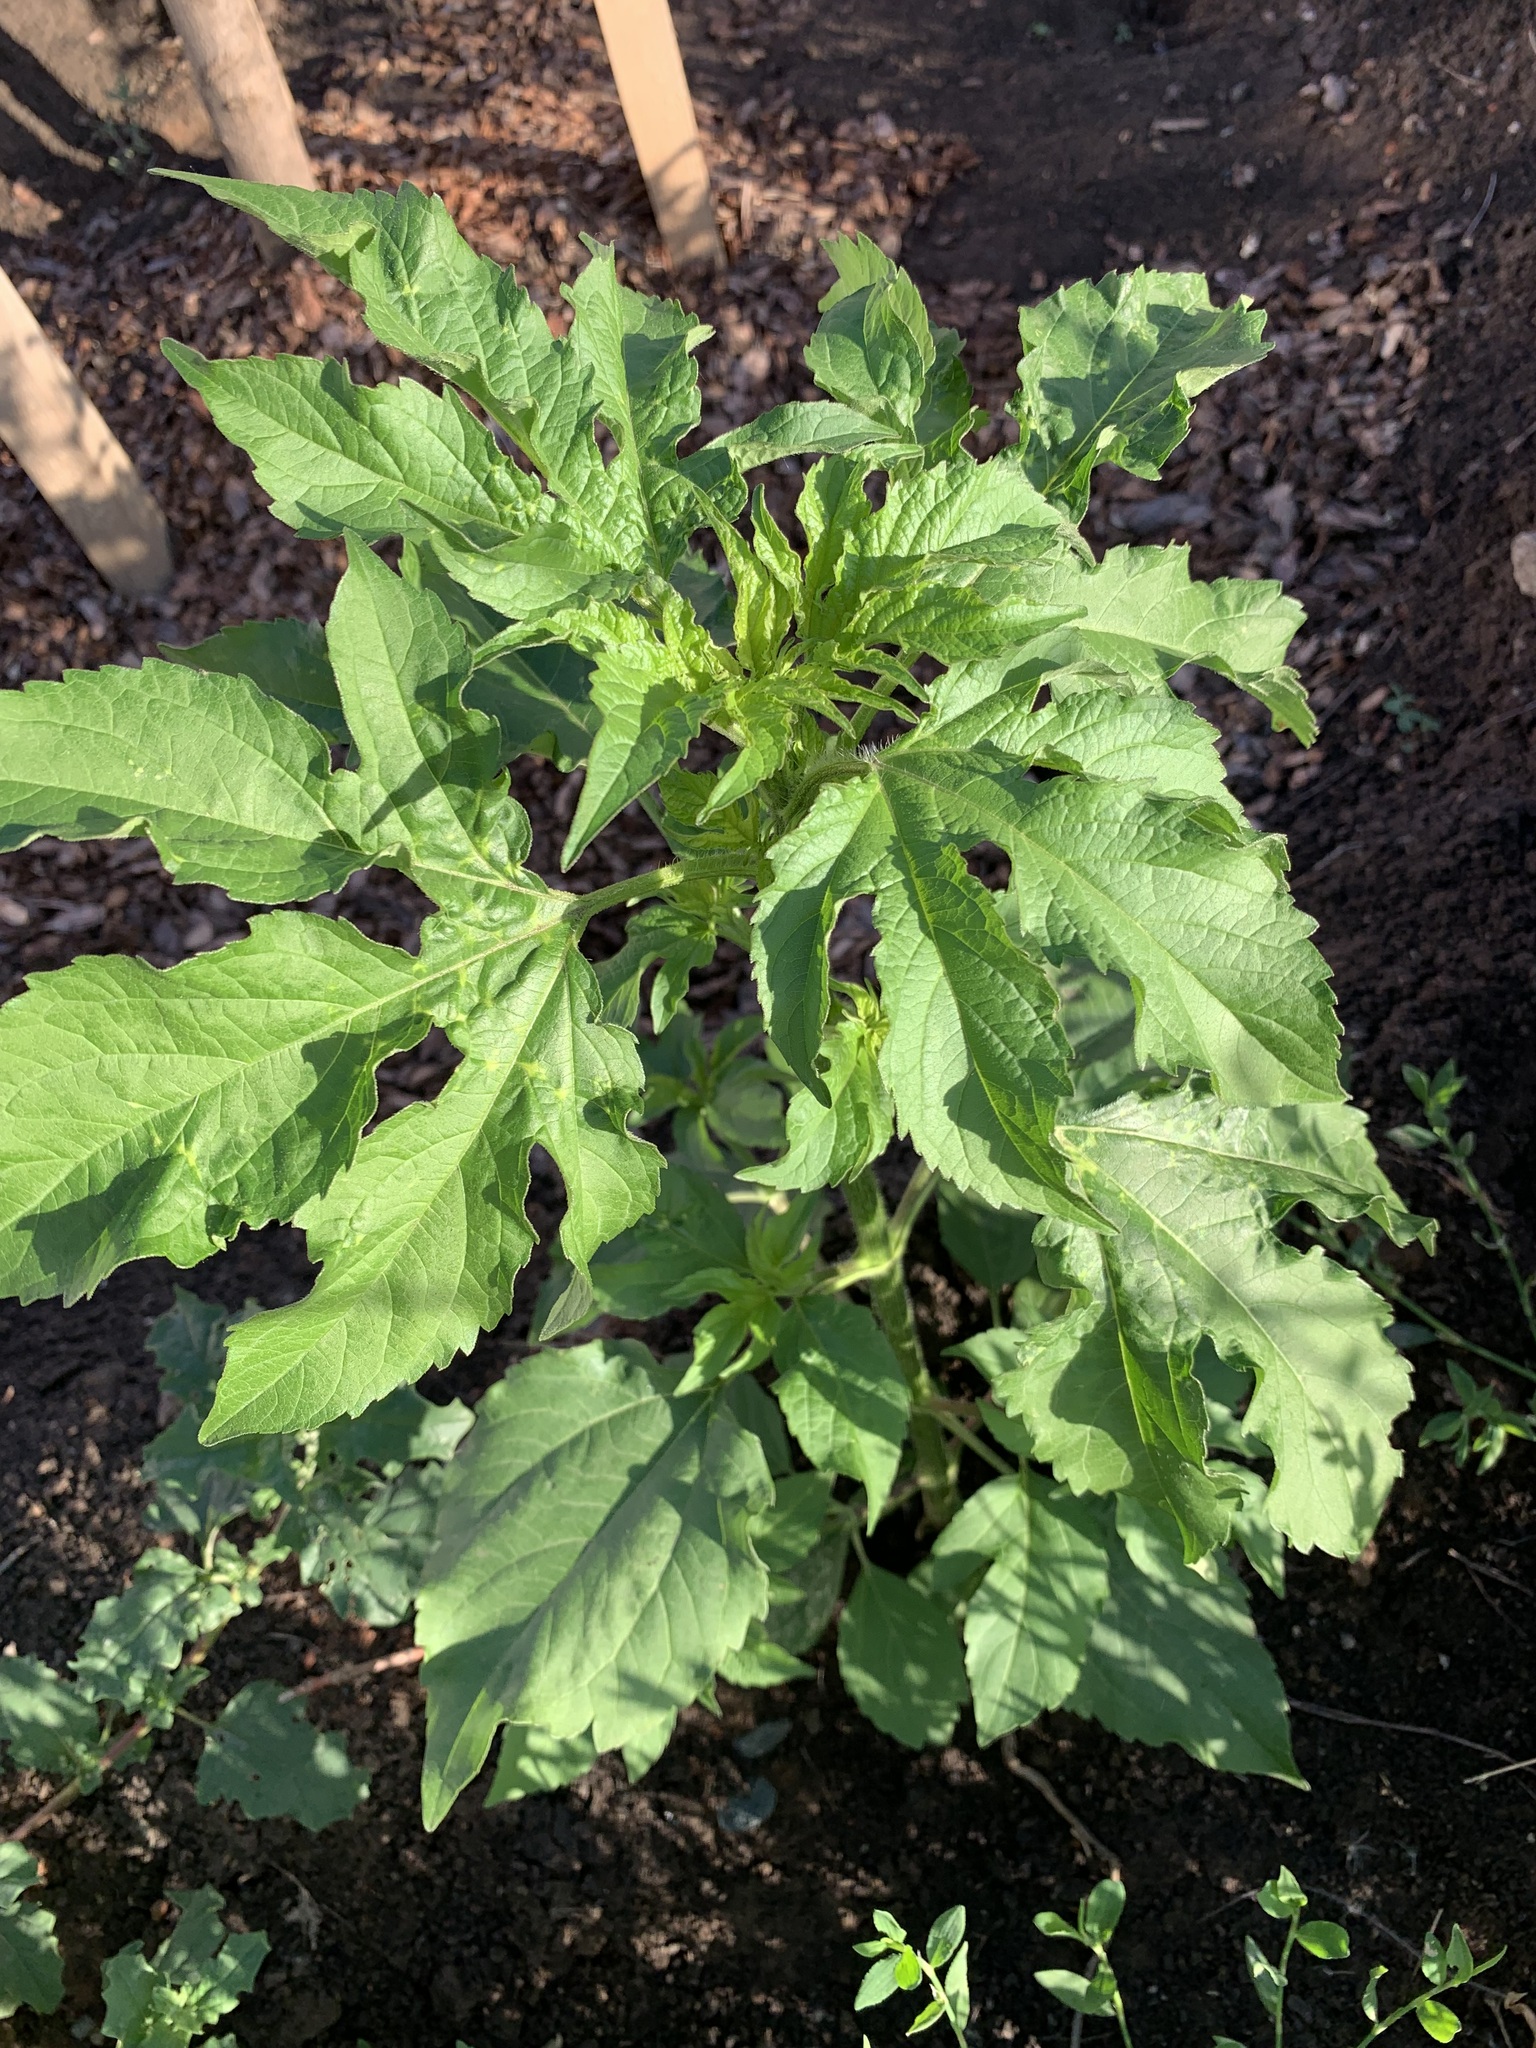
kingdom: Plantae
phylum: Tracheophyta
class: Magnoliopsida
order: Asterales
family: Asteraceae
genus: Ambrosia
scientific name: Ambrosia trifida
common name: Giant ragweed
